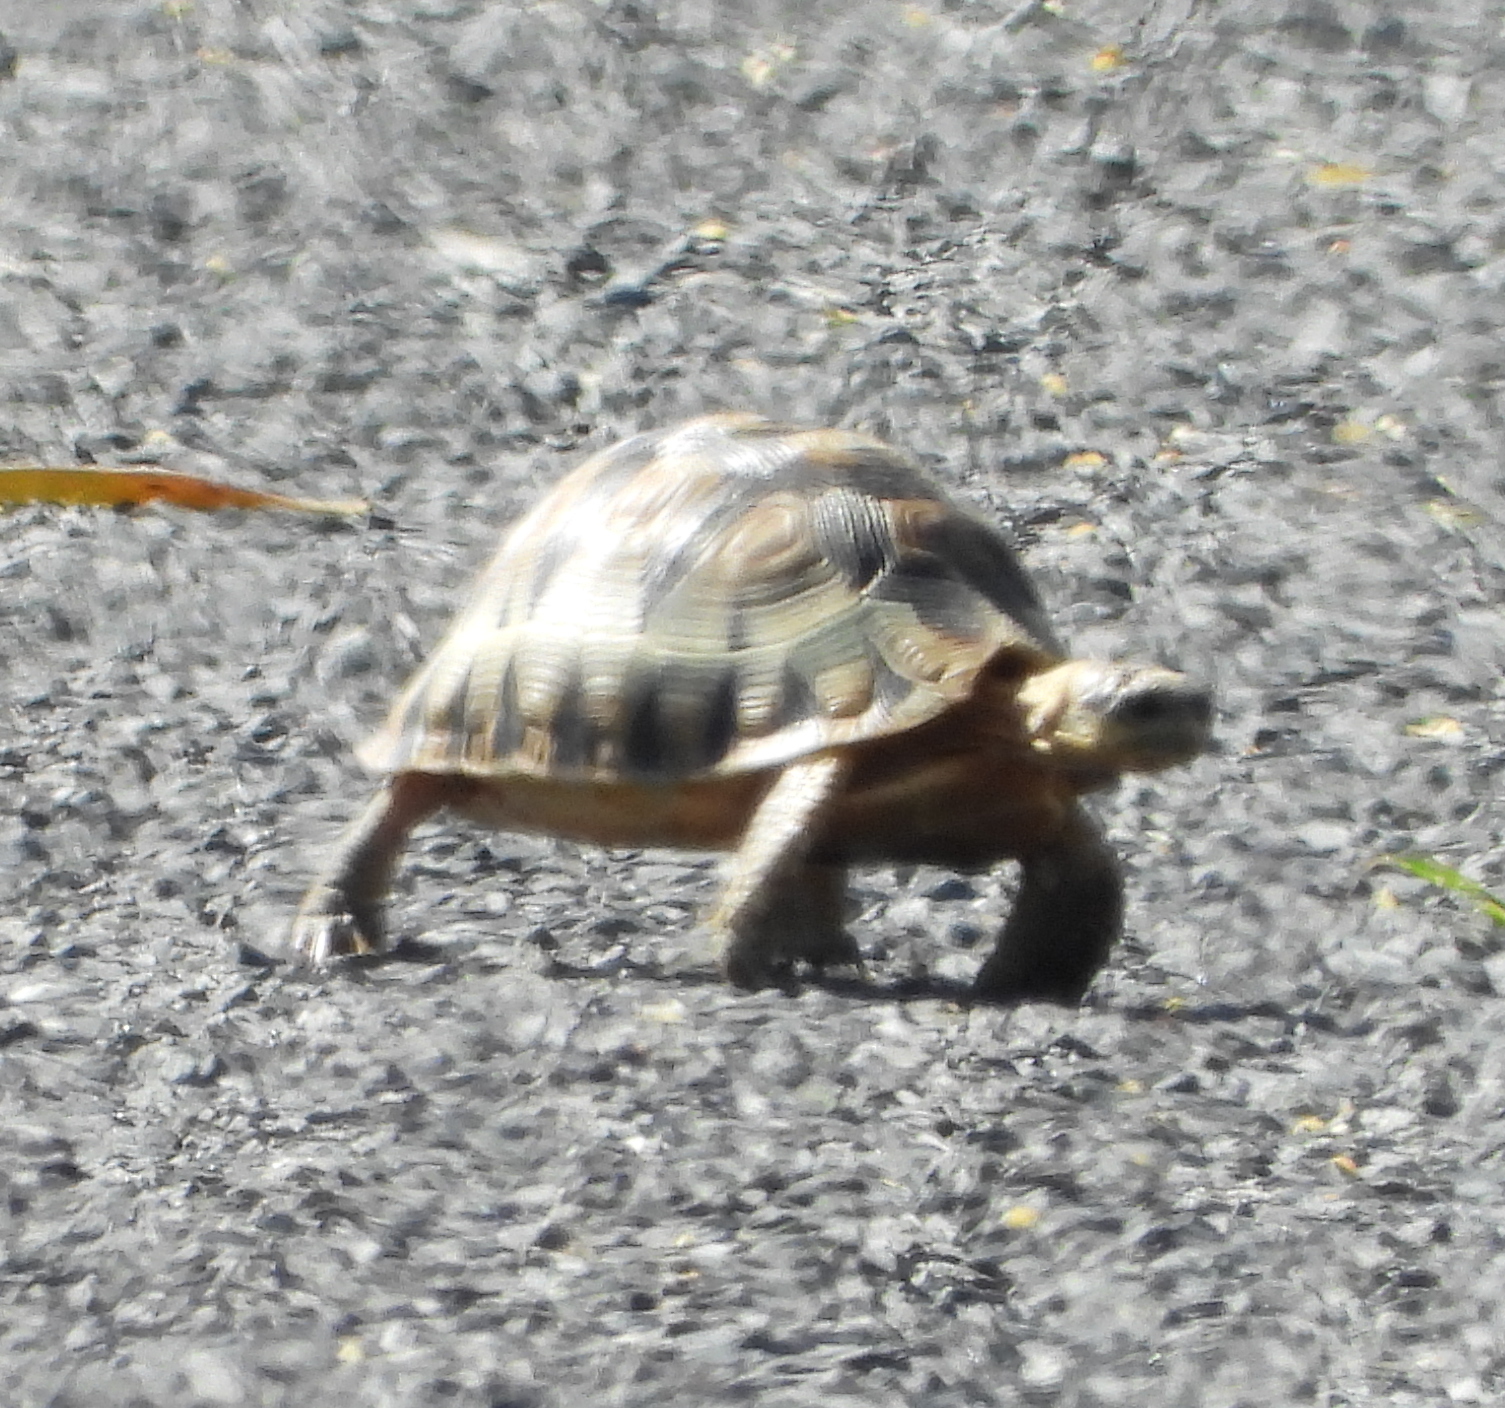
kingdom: Animalia
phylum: Chordata
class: Testudines
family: Testudinidae
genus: Chersina
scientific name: Chersina angulata
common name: South african bowsprit tortoise
